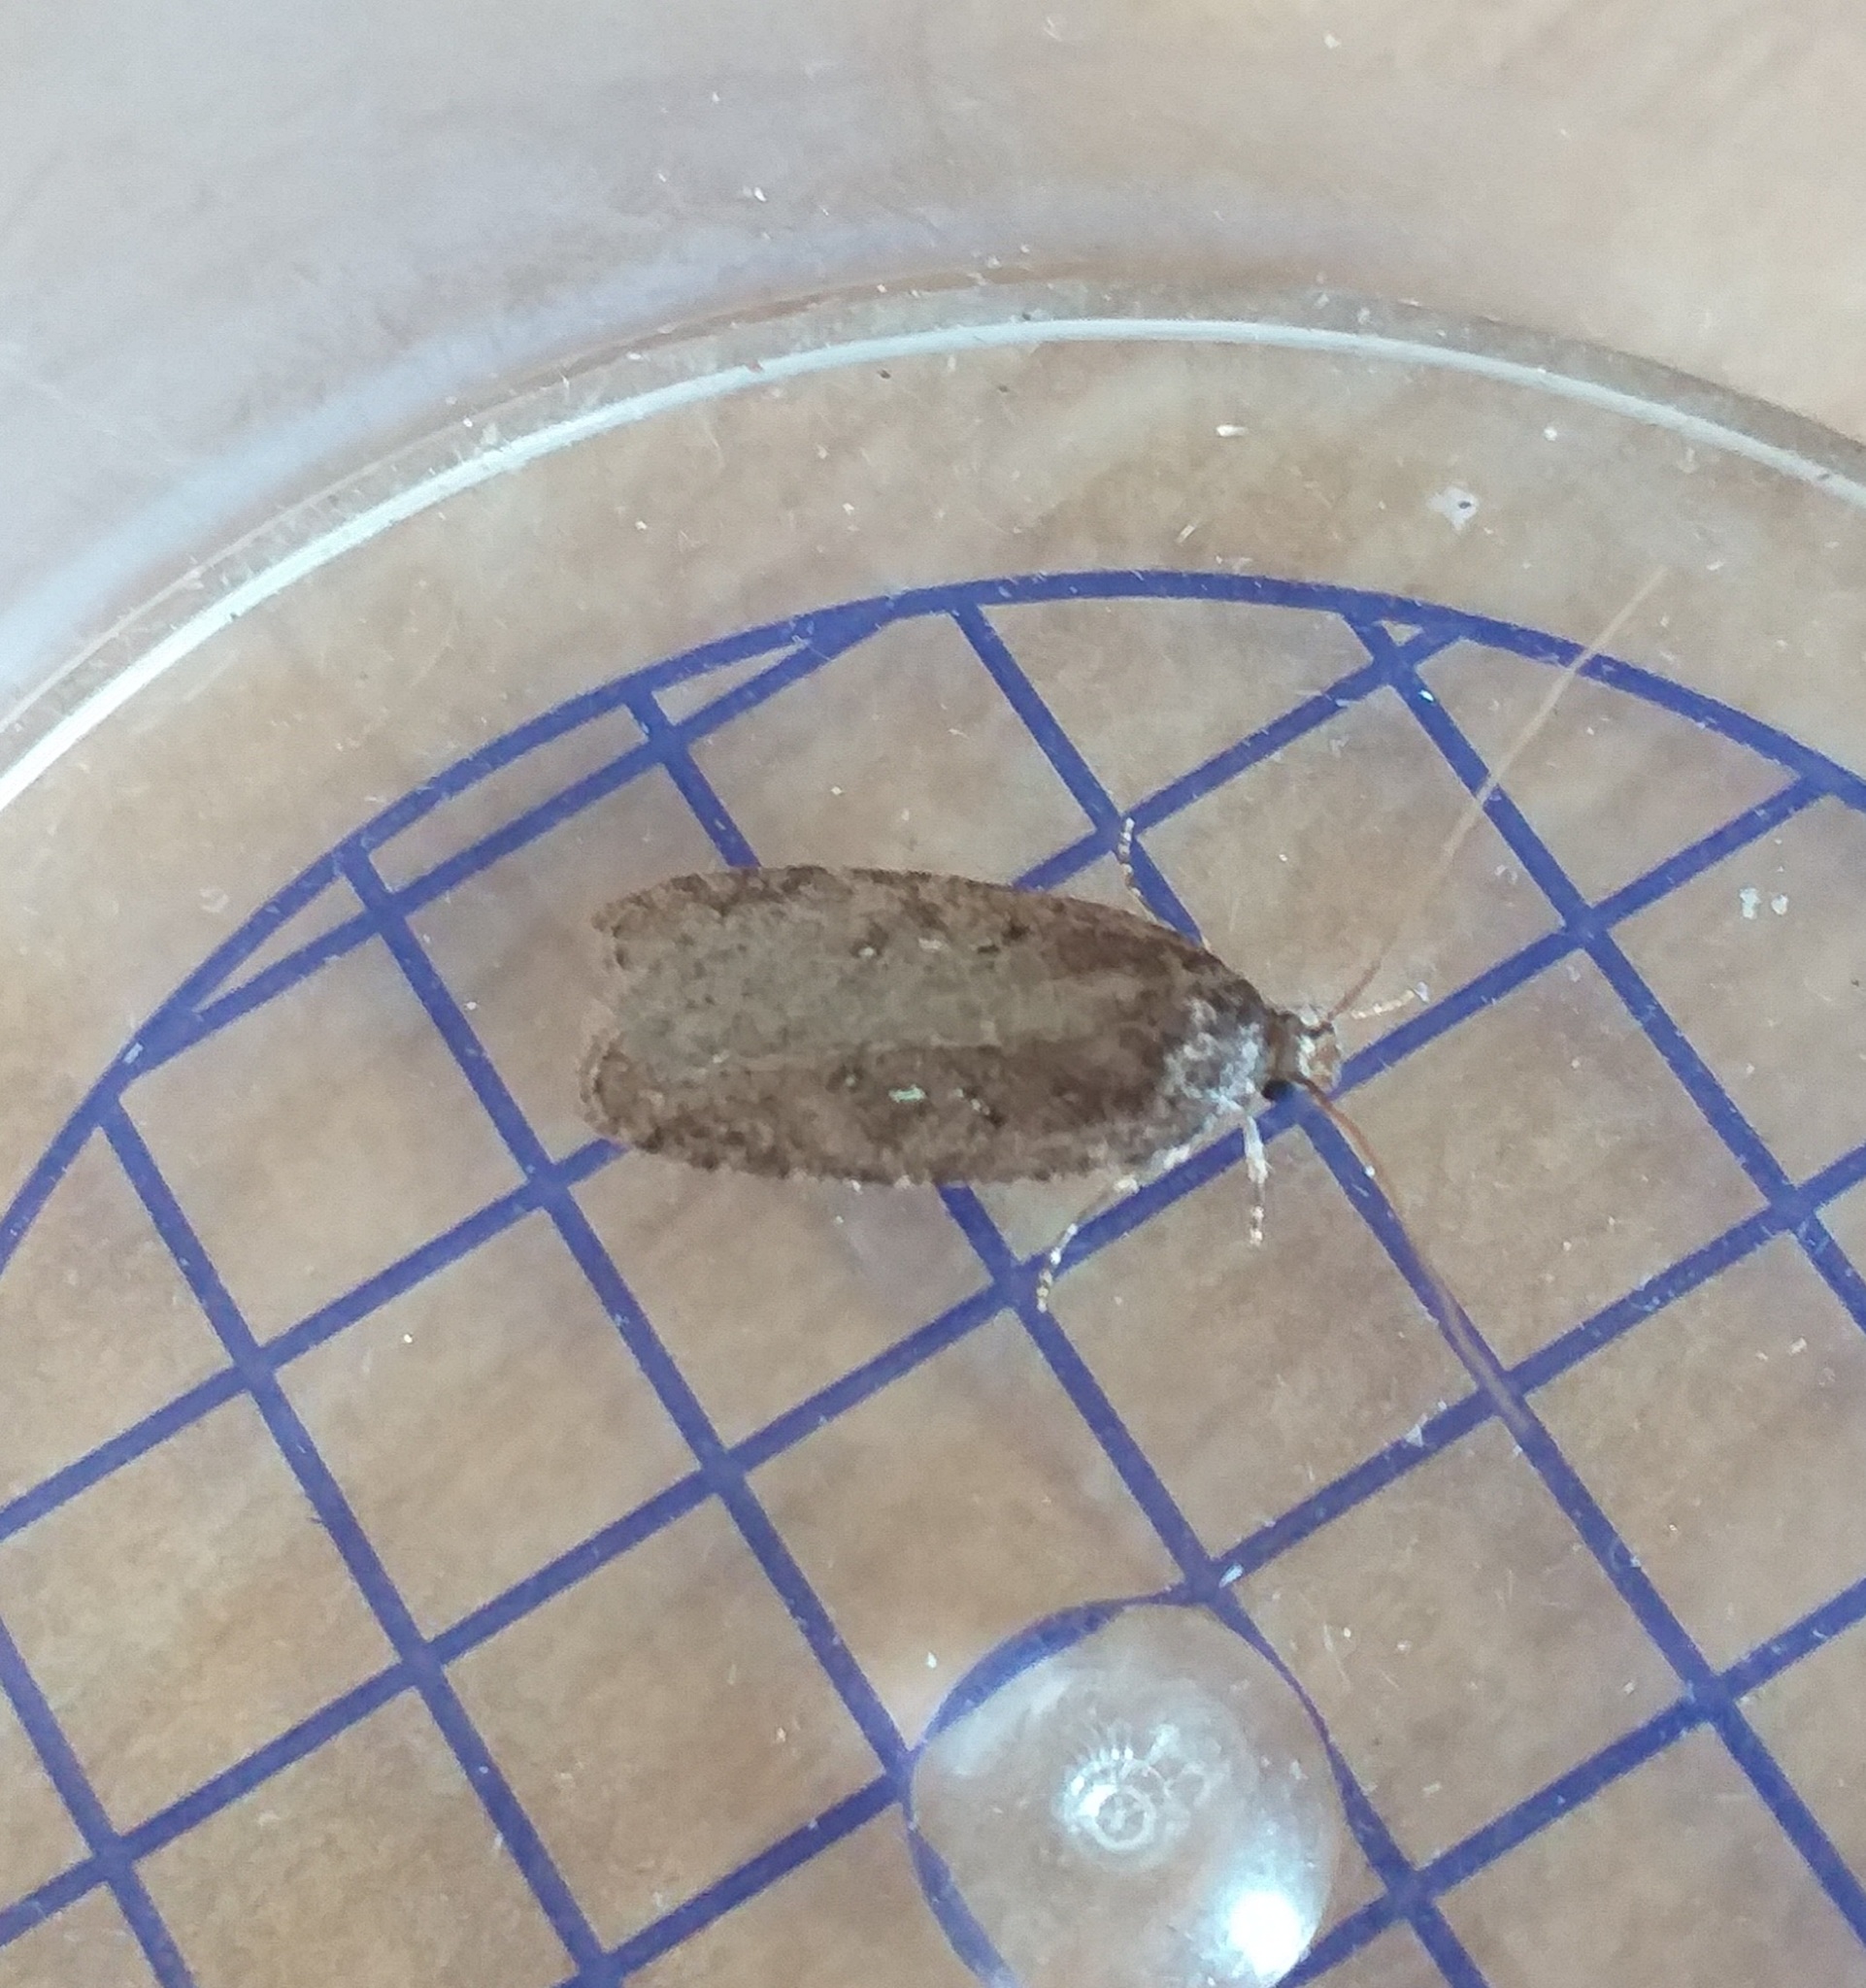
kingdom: Animalia
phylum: Arthropoda
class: Insecta
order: Lepidoptera
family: Depressariidae
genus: Agonopterix
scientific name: Agonopterix
